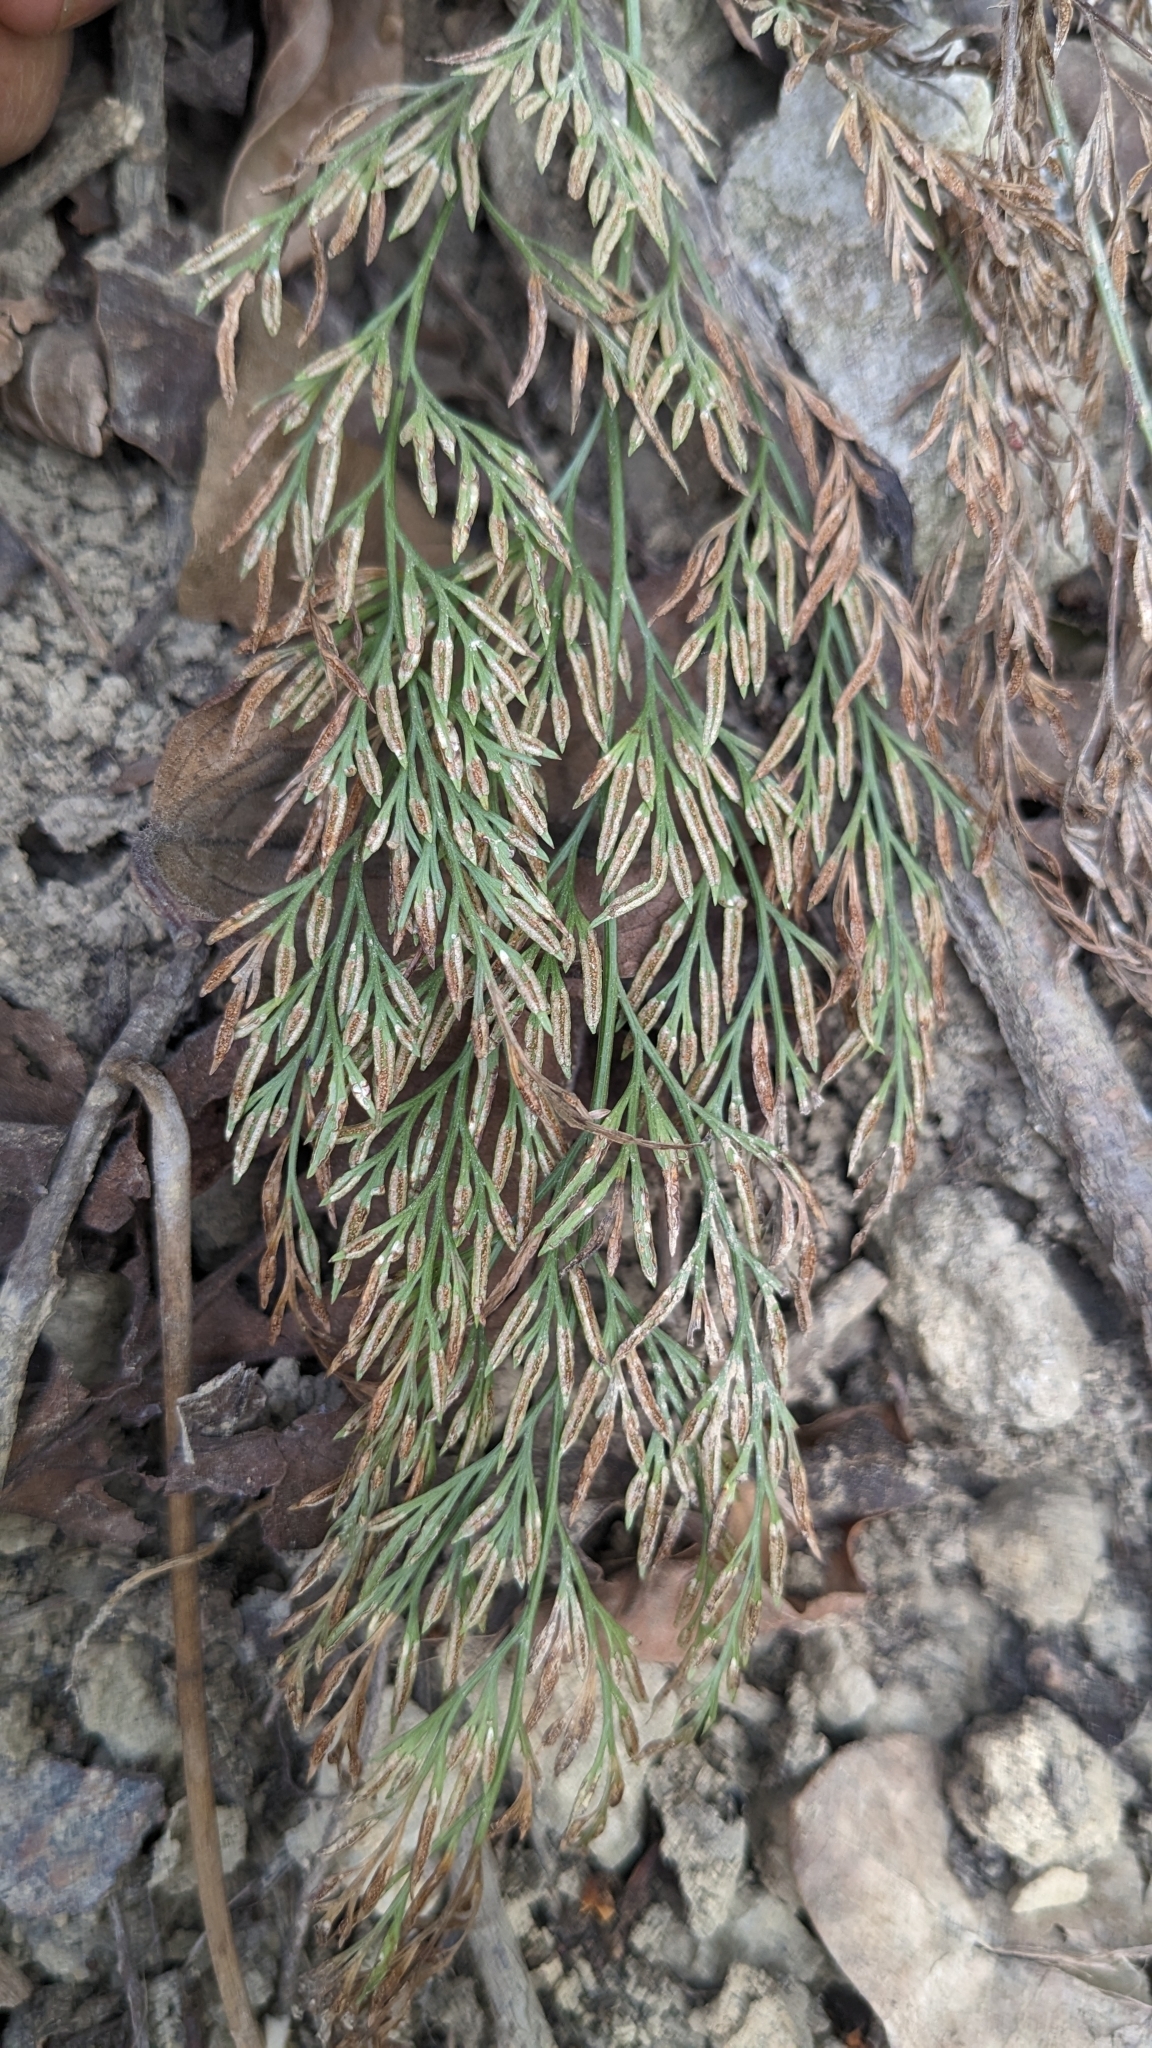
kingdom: Plantae
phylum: Tracheophyta
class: Polypodiopsida
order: Polypodiales
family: Pteridaceae
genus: Onychium
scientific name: Onychium japonicum
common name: Carrot fern
